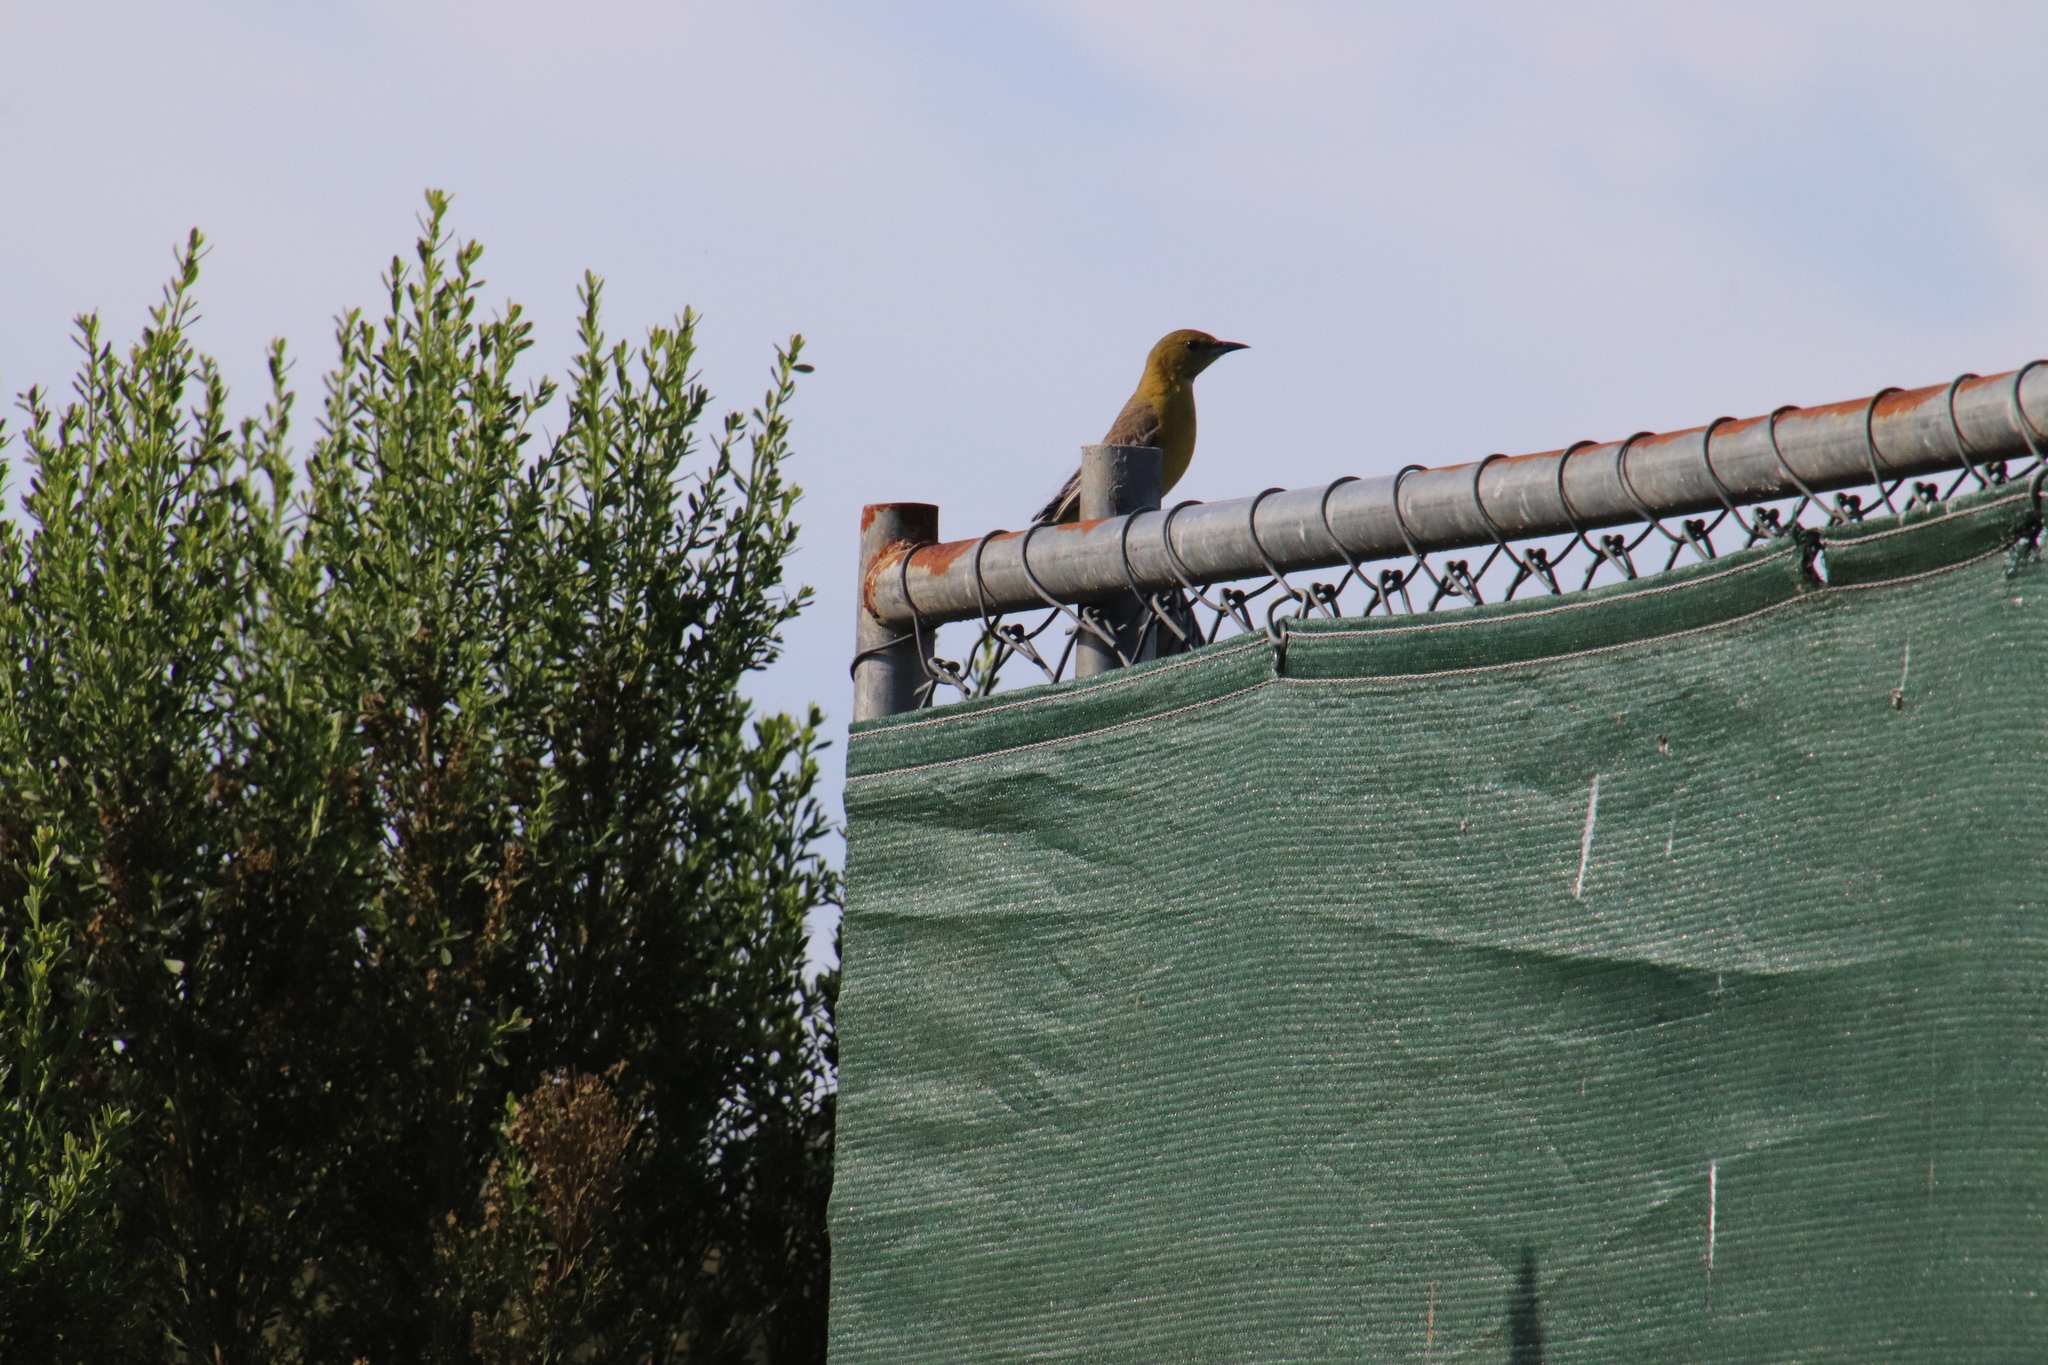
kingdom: Animalia
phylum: Chordata
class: Aves
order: Passeriformes
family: Icteridae
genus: Icterus
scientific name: Icterus cucullatus
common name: Hooded oriole
